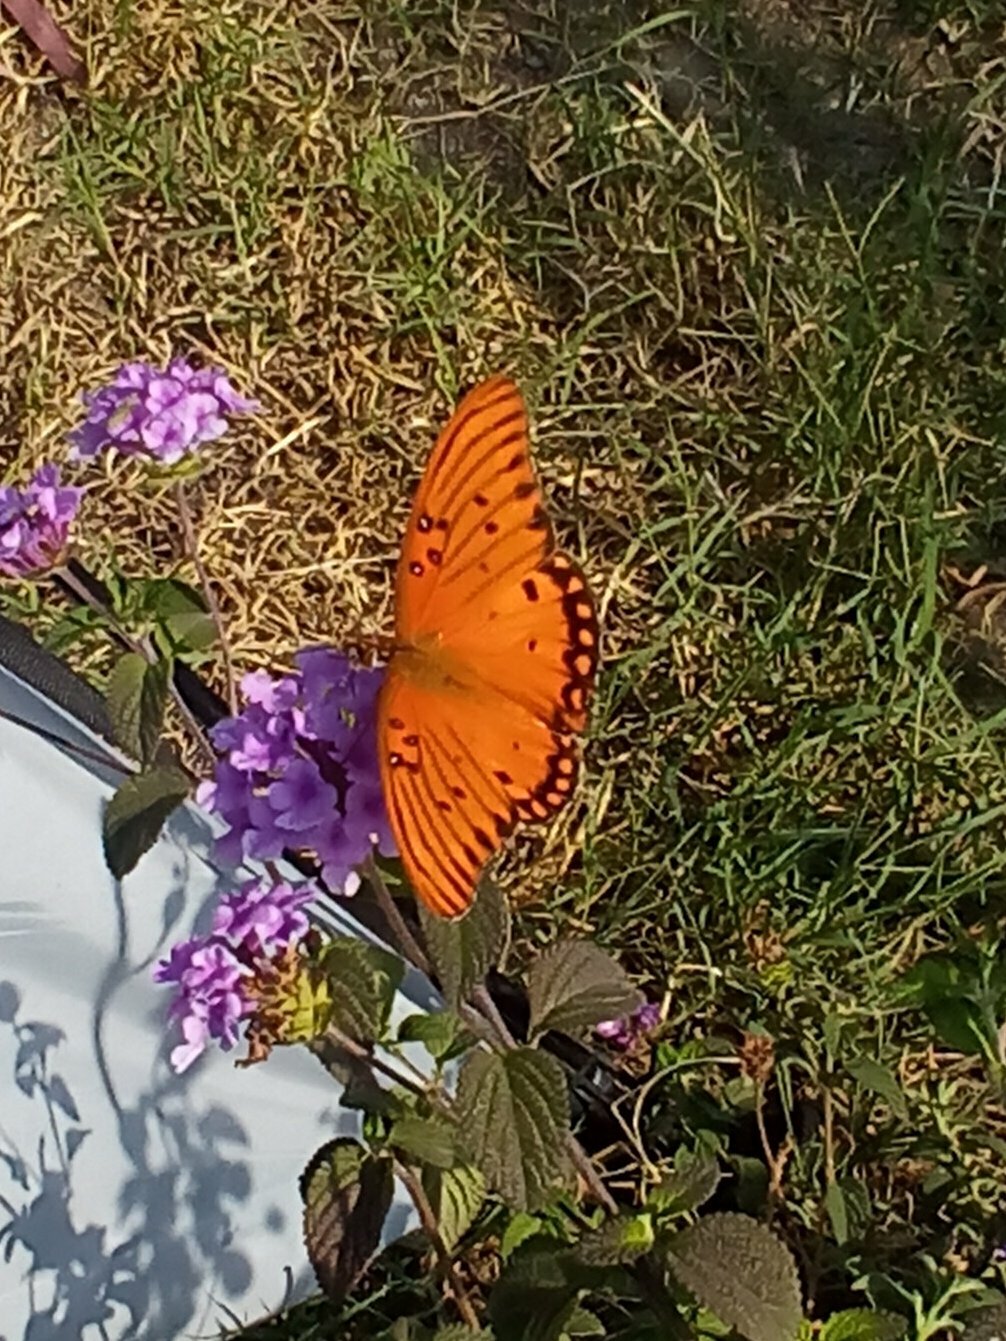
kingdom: Animalia
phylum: Arthropoda
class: Insecta
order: Lepidoptera
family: Nymphalidae
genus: Dione
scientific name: Dione vanillae
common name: Gulf fritillary
